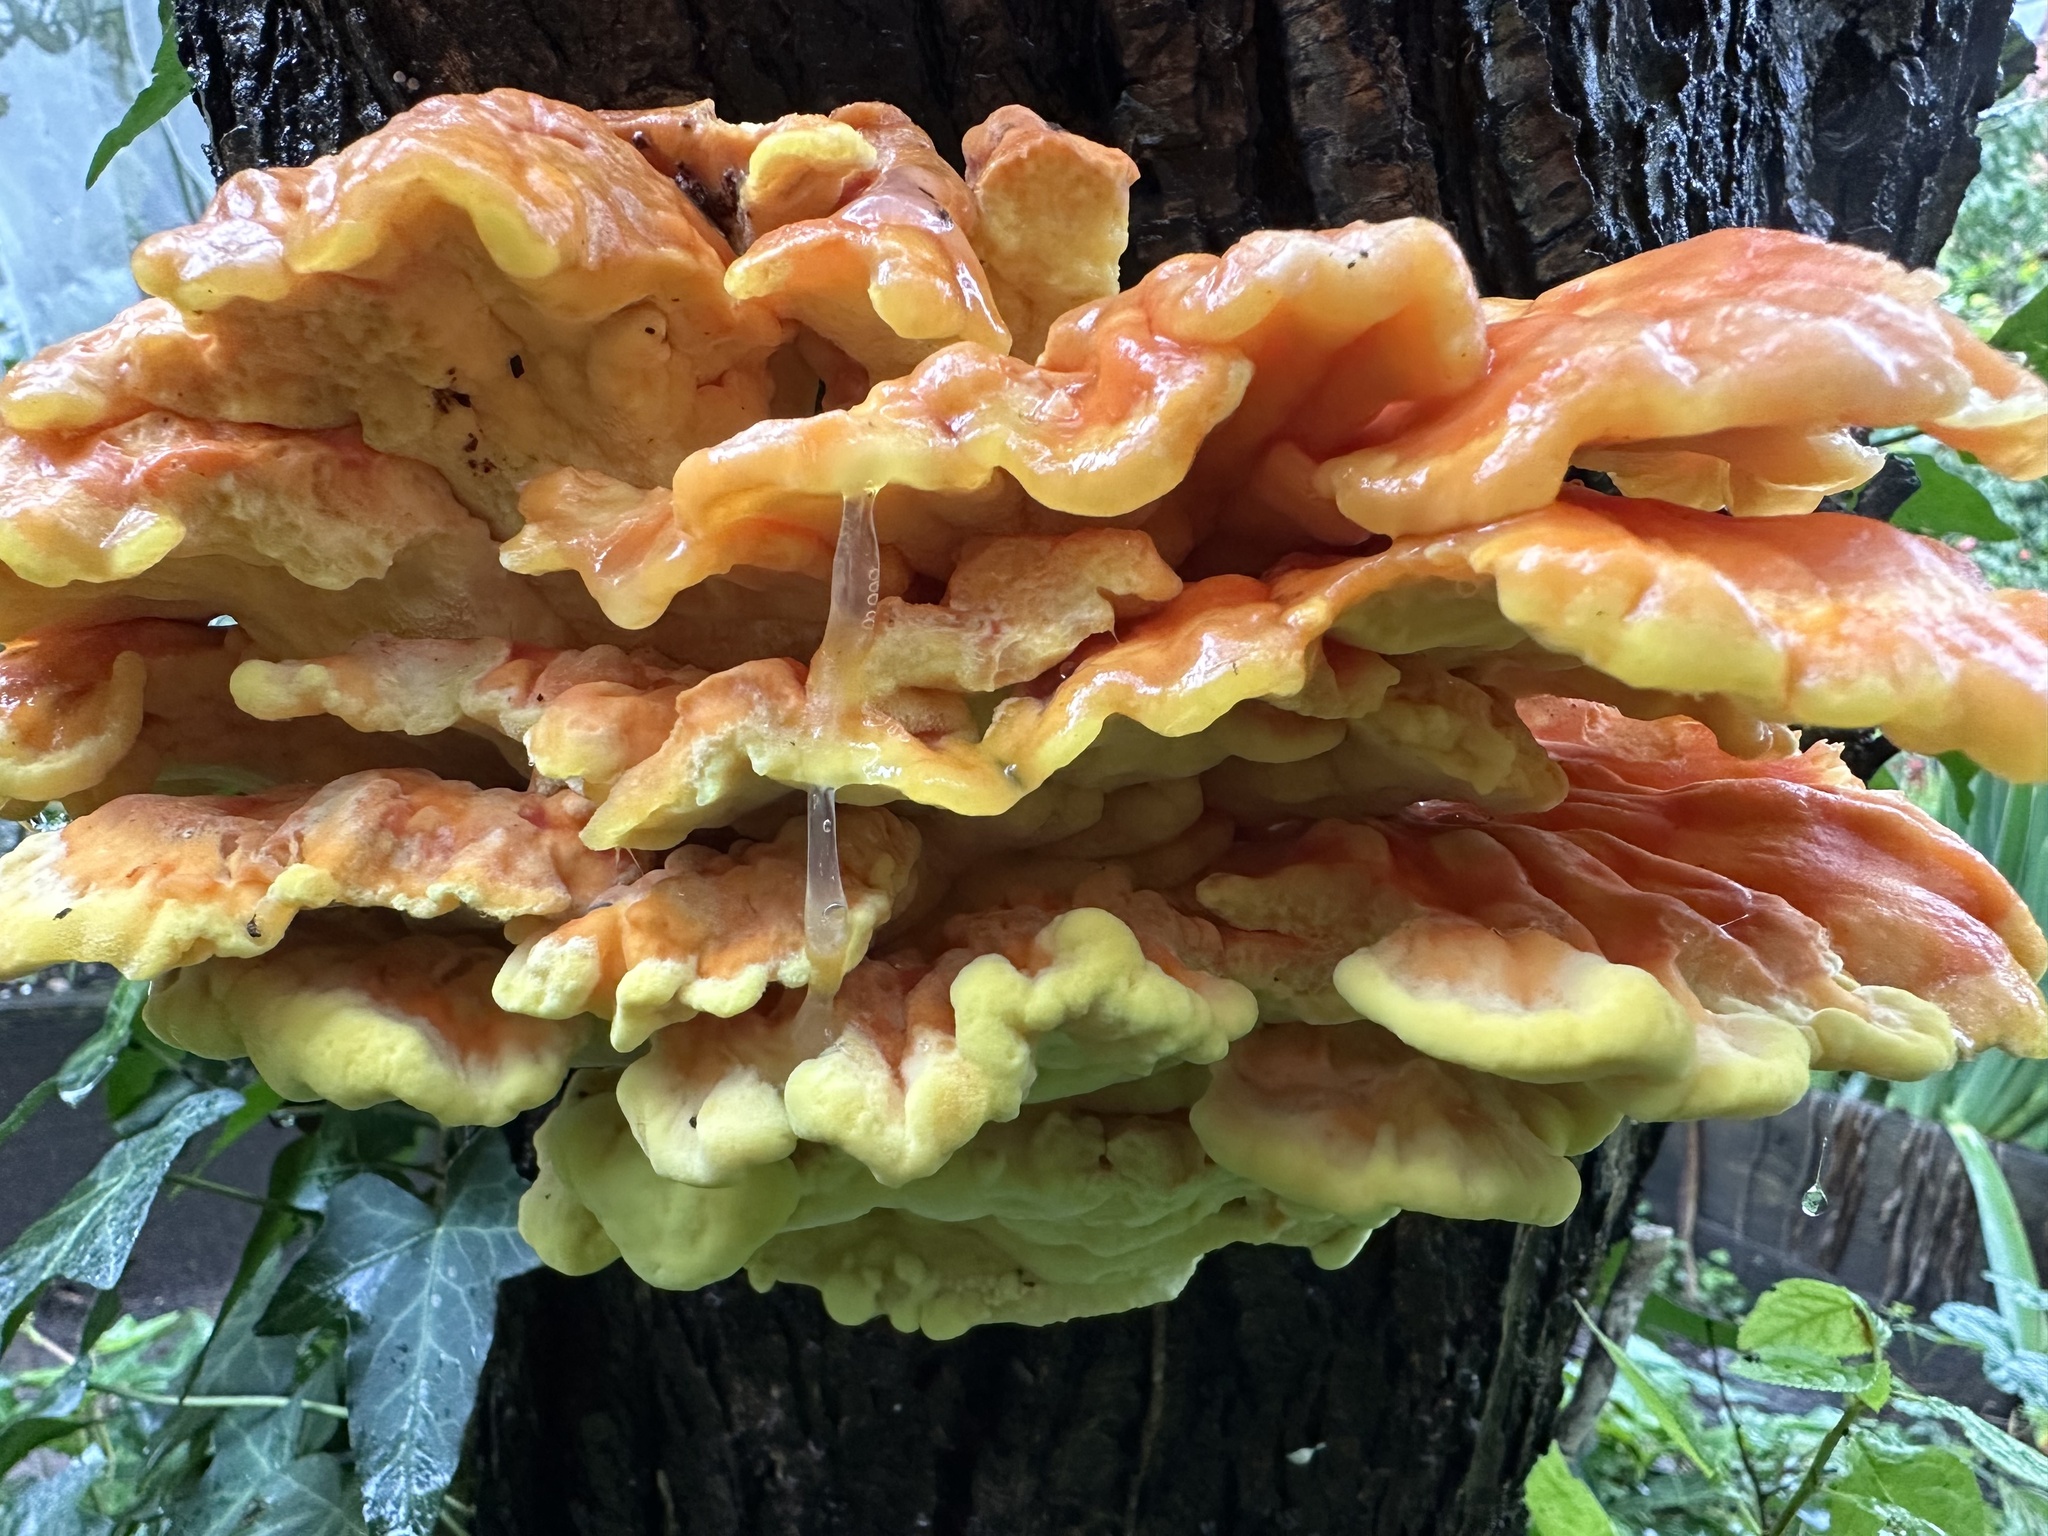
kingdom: Fungi
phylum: Basidiomycota
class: Agaricomycetes
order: Polyporales
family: Laetiporaceae
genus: Laetiporus
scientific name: Laetiporus sulphureus
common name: Chicken of the woods
